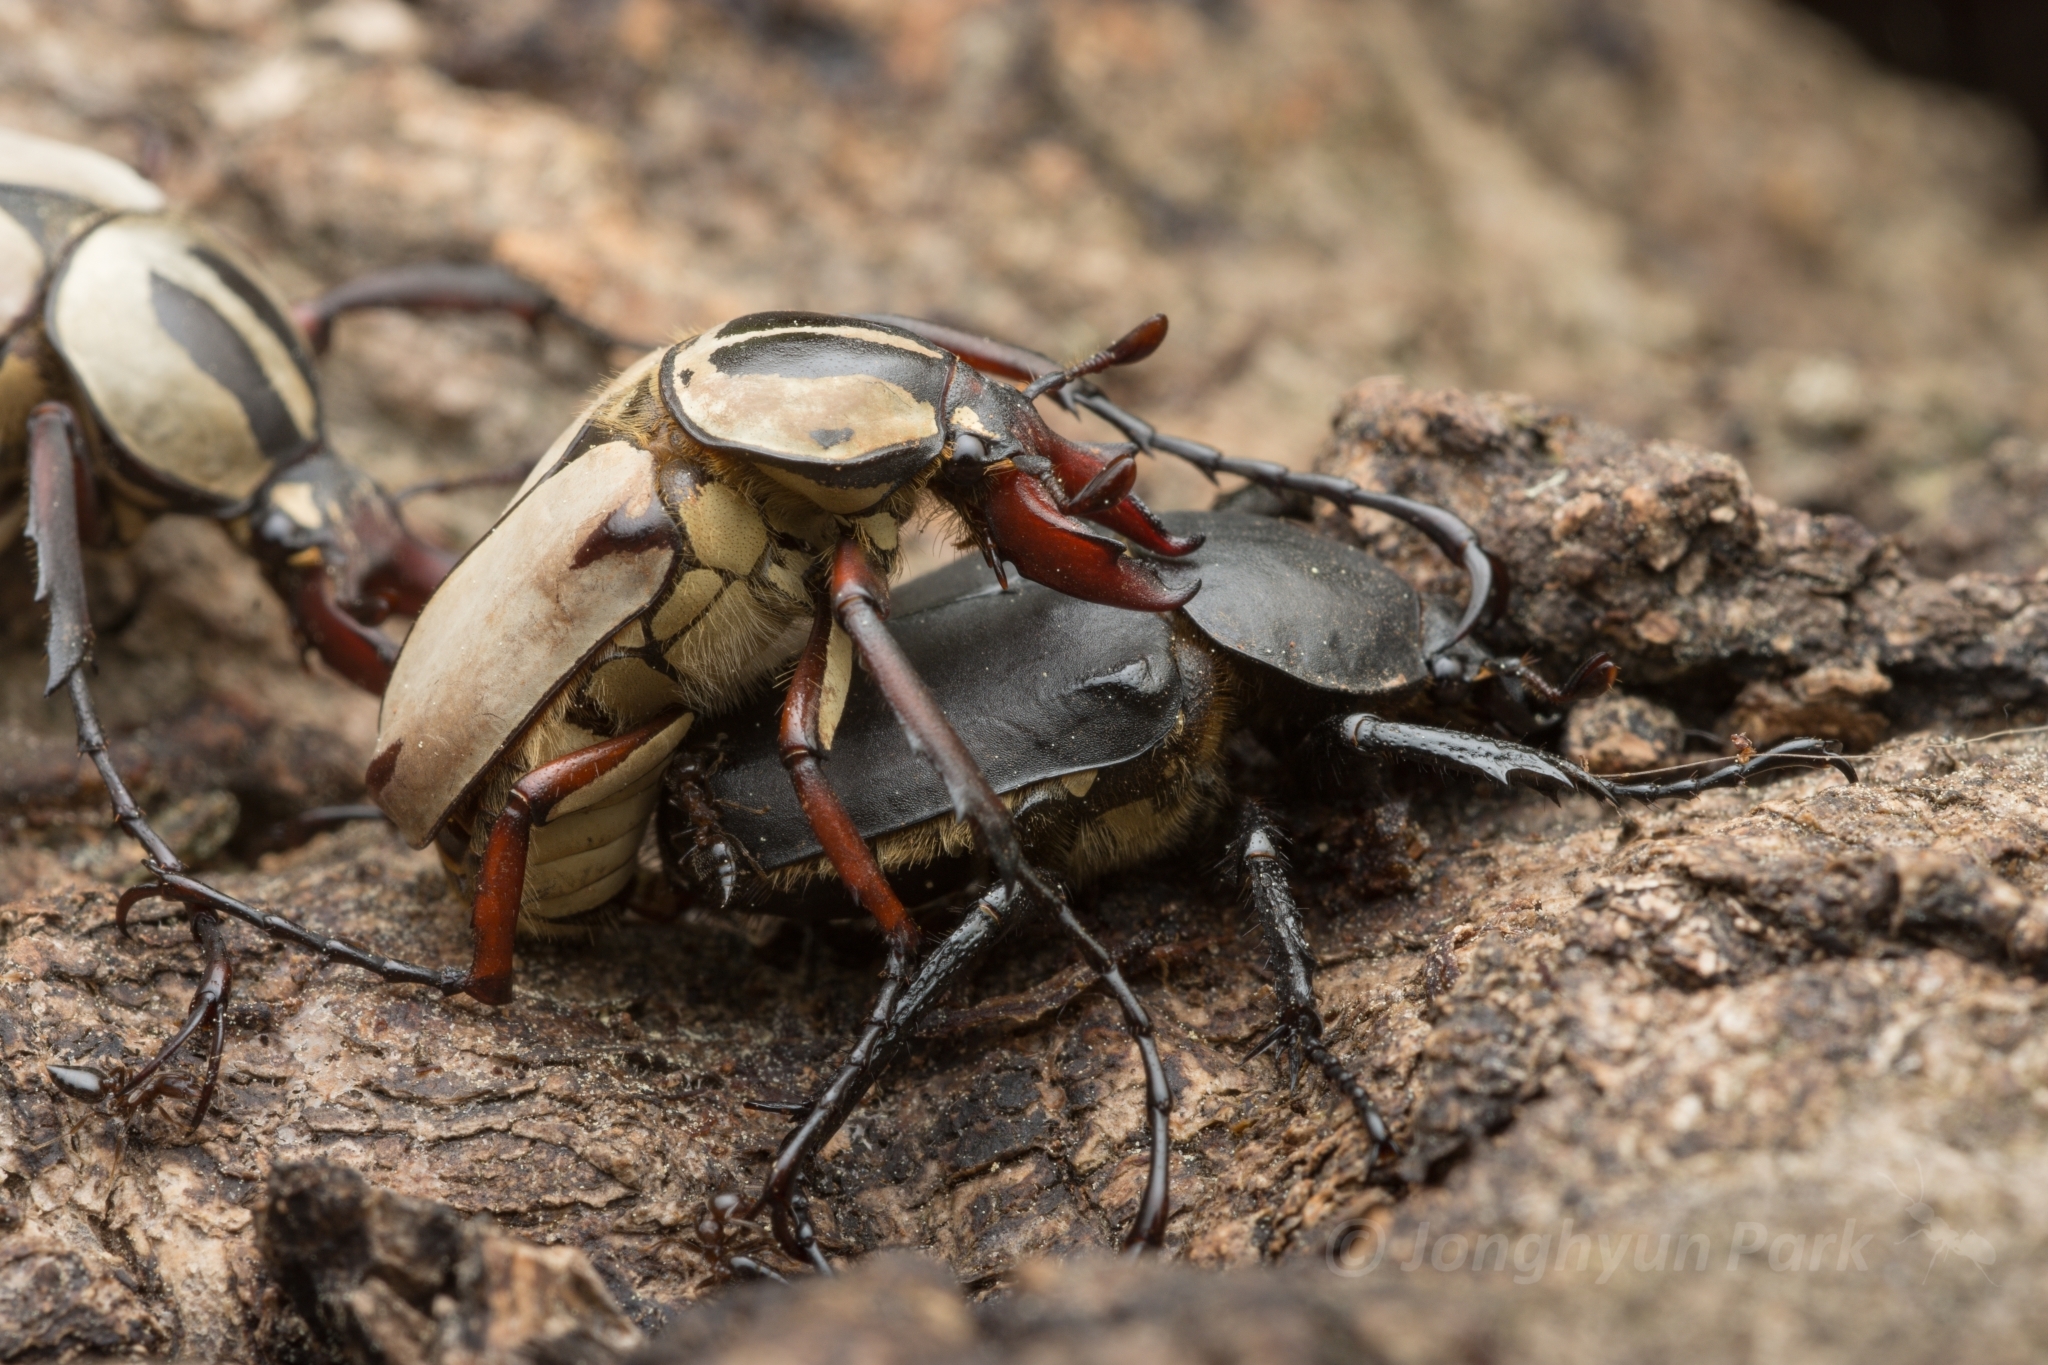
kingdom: Animalia
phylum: Arthropoda
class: Insecta
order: Coleoptera
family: Scarabaeidae
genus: Dicronocephalus
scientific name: Dicronocephalus adamsi
